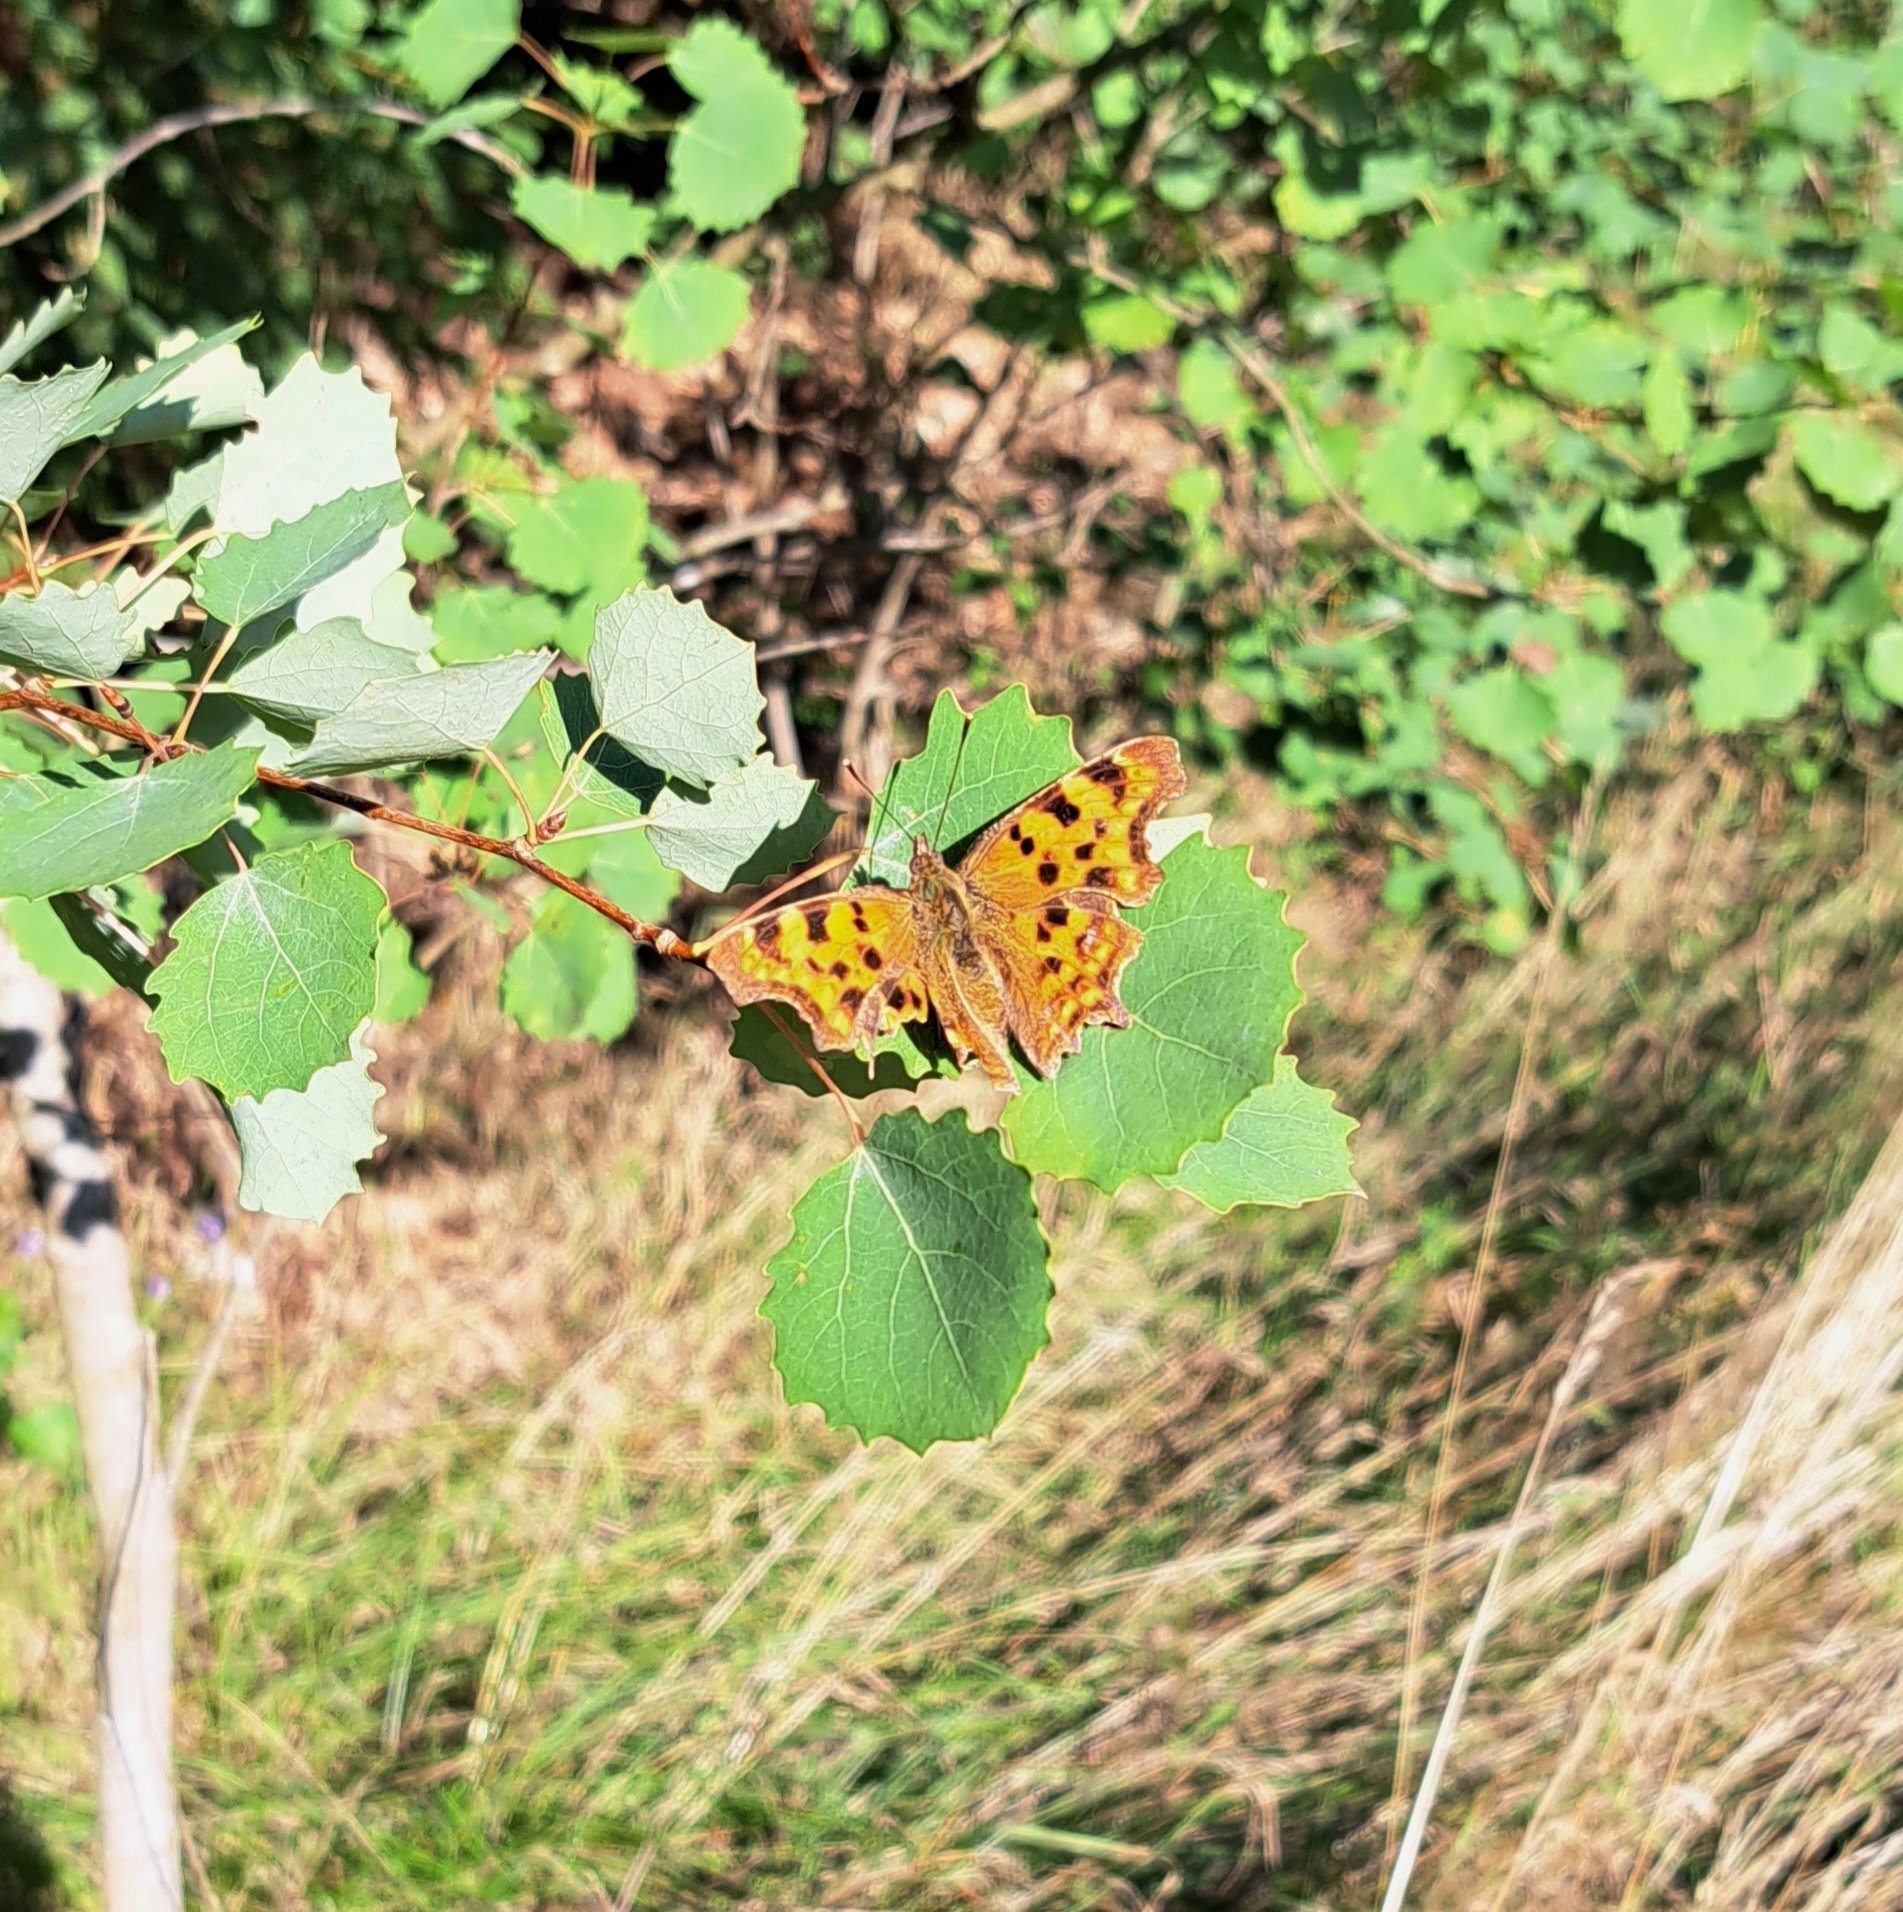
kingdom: Animalia
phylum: Arthropoda
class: Insecta
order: Lepidoptera
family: Nymphalidae
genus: Polygonia
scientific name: Polygonia c-album
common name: Comma
